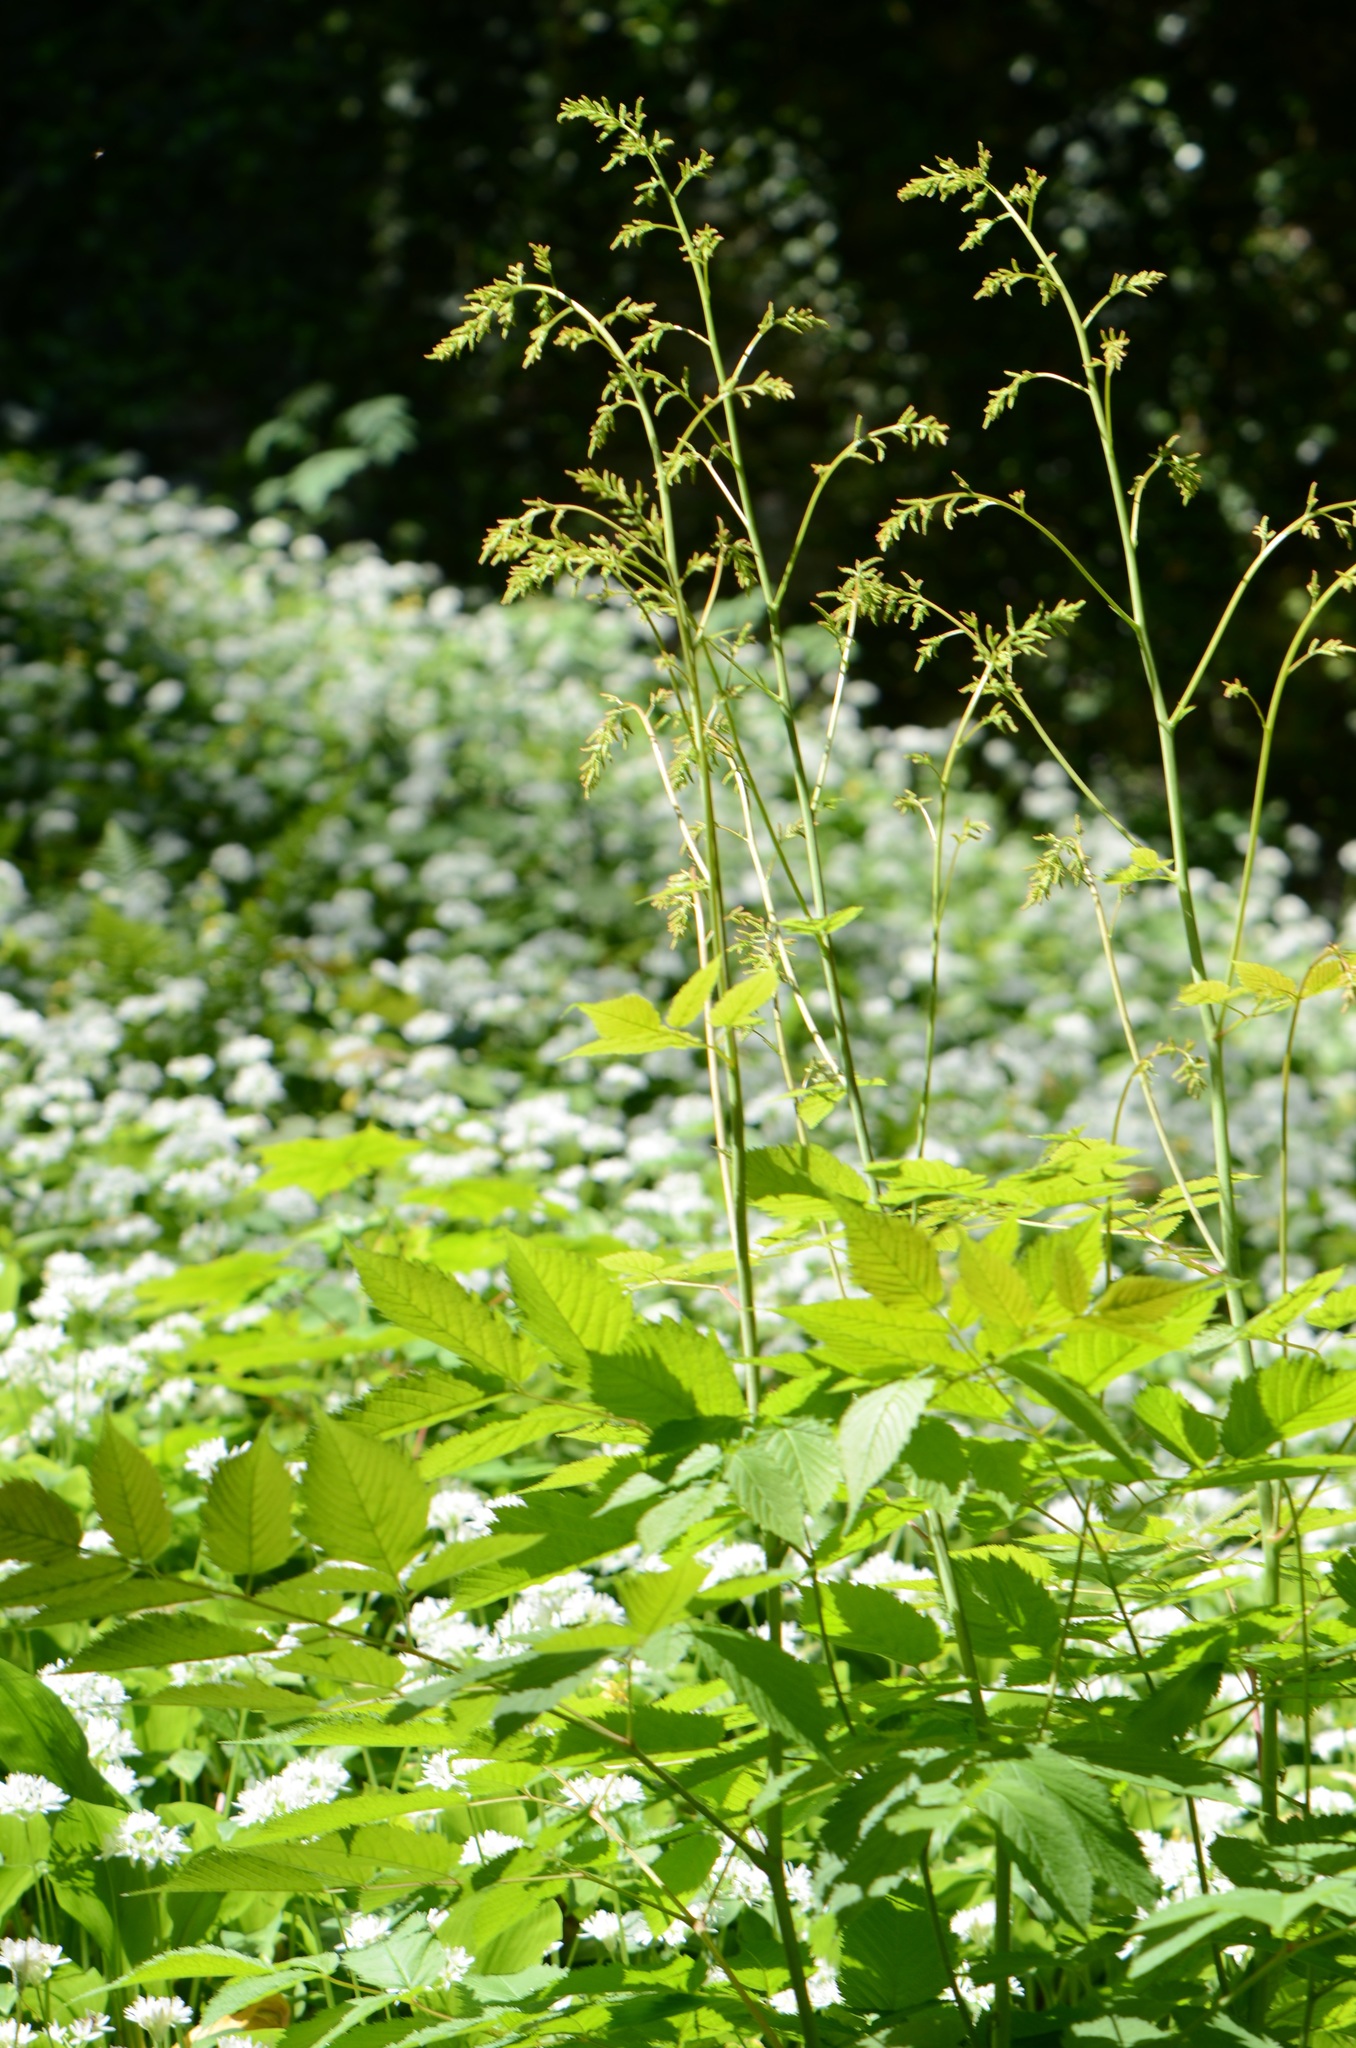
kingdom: Plantae
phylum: Tracheophyta
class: Magnoliopsida
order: Rosales
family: Rosaceae
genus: Aruncus
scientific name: Aruncus dioicus
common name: Buck's-beard
